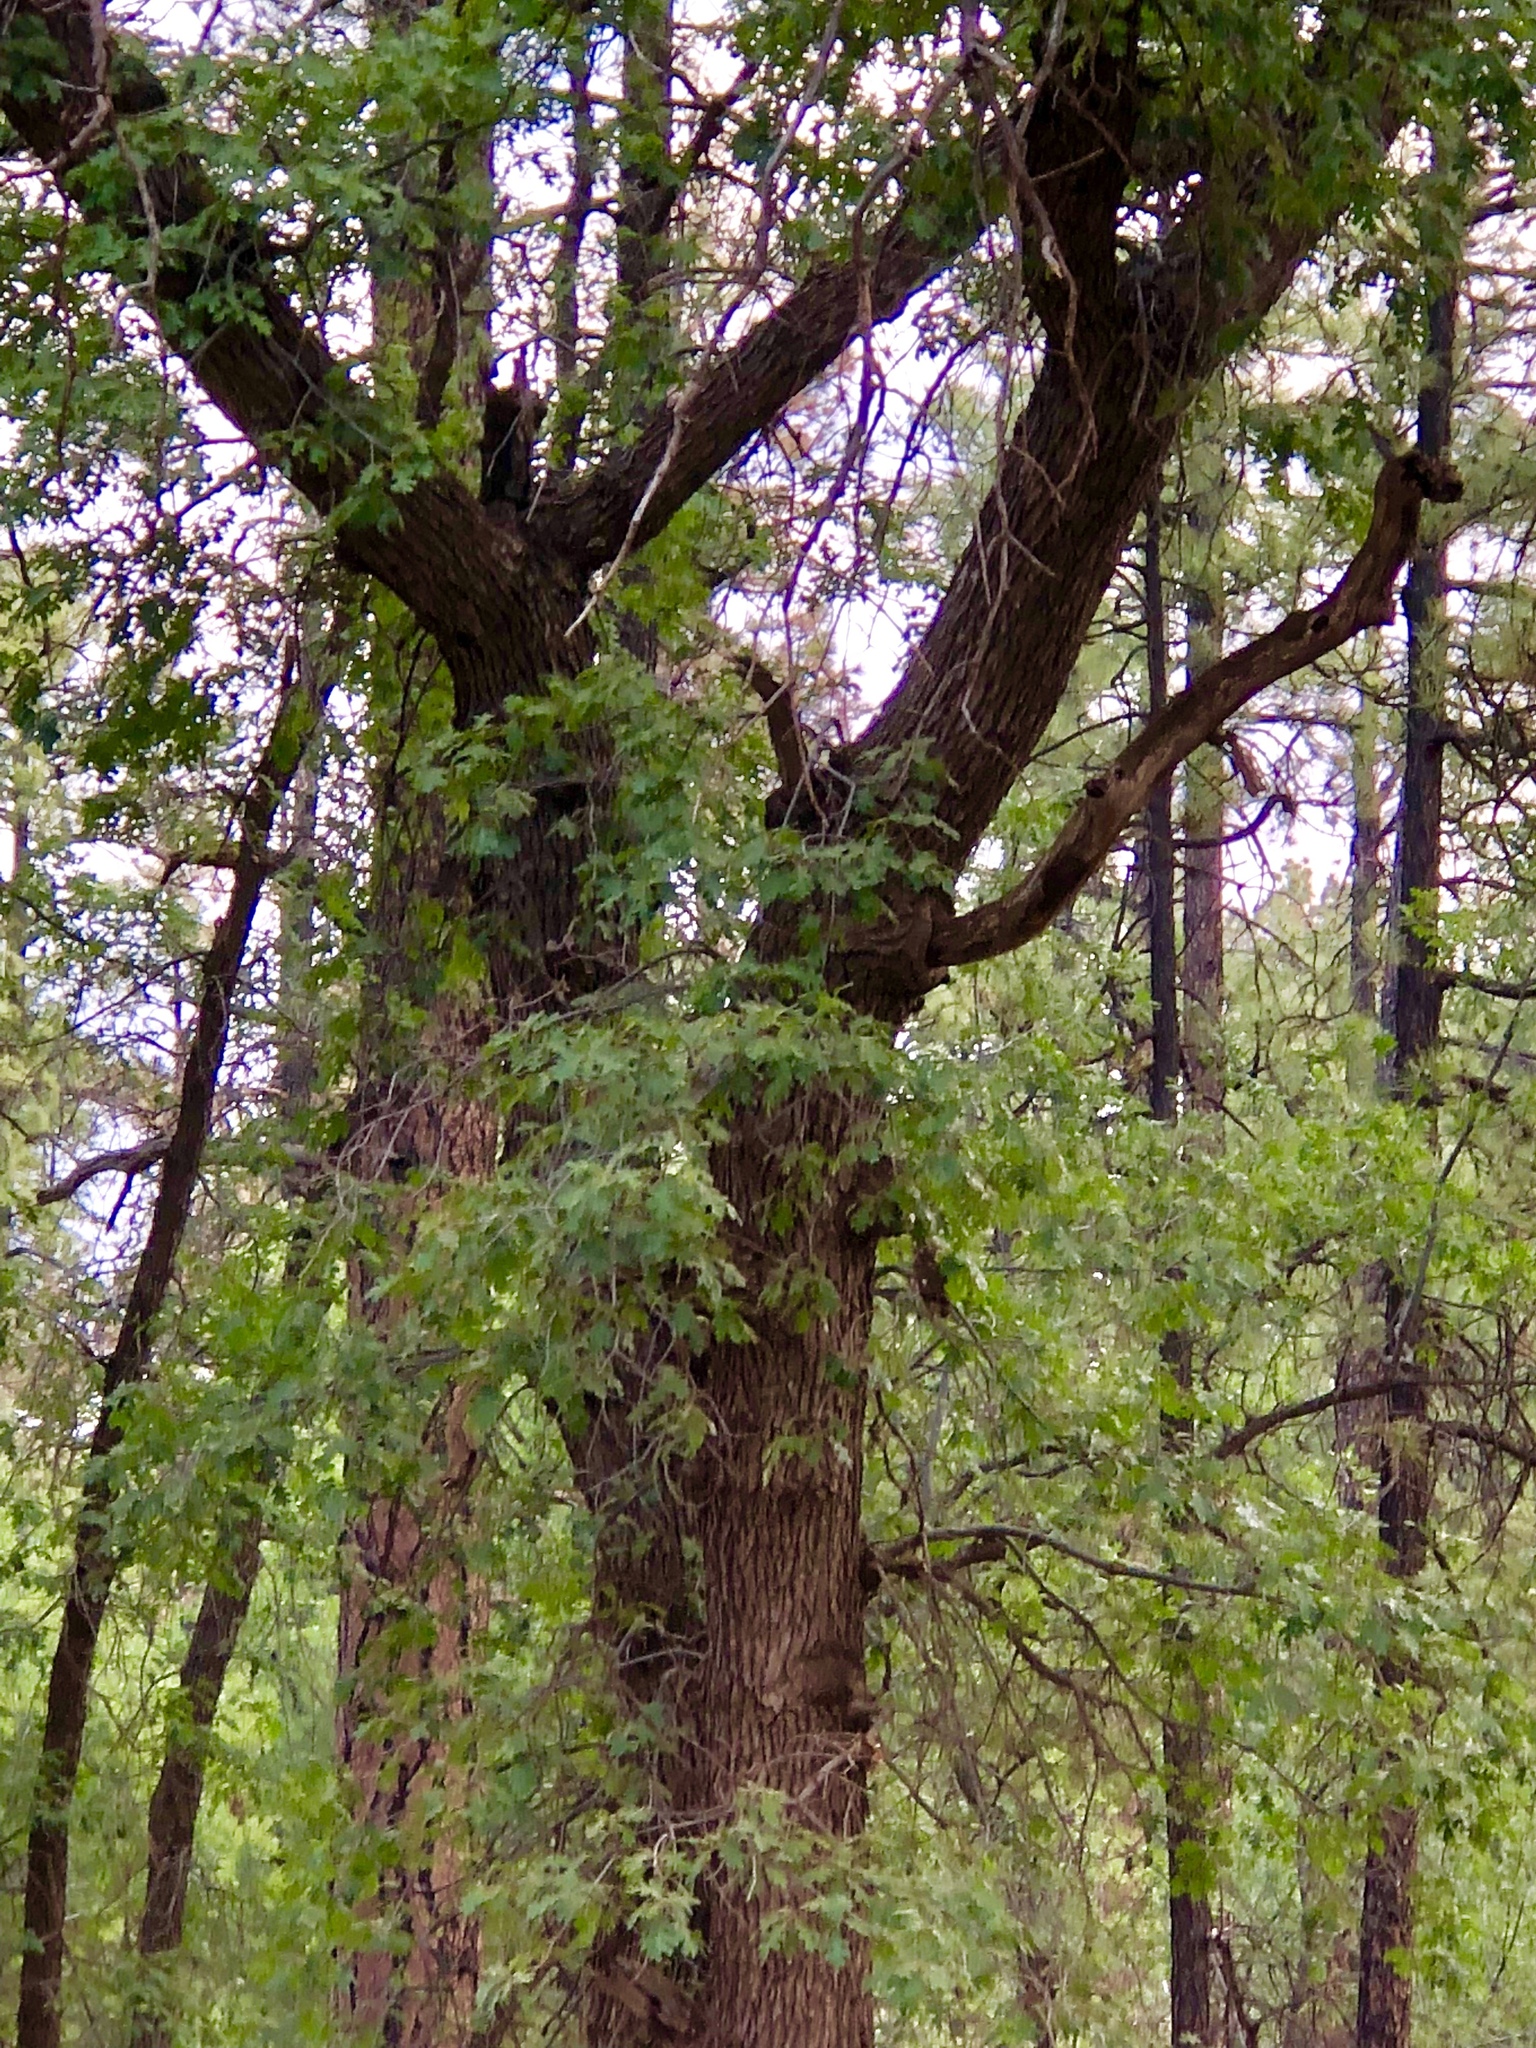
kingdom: Plantae
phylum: Tracheophyta
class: Magnoliopsida
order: Fagales
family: Fagaceae
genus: Quercus
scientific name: Quercus gambelii
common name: Gambel oak
